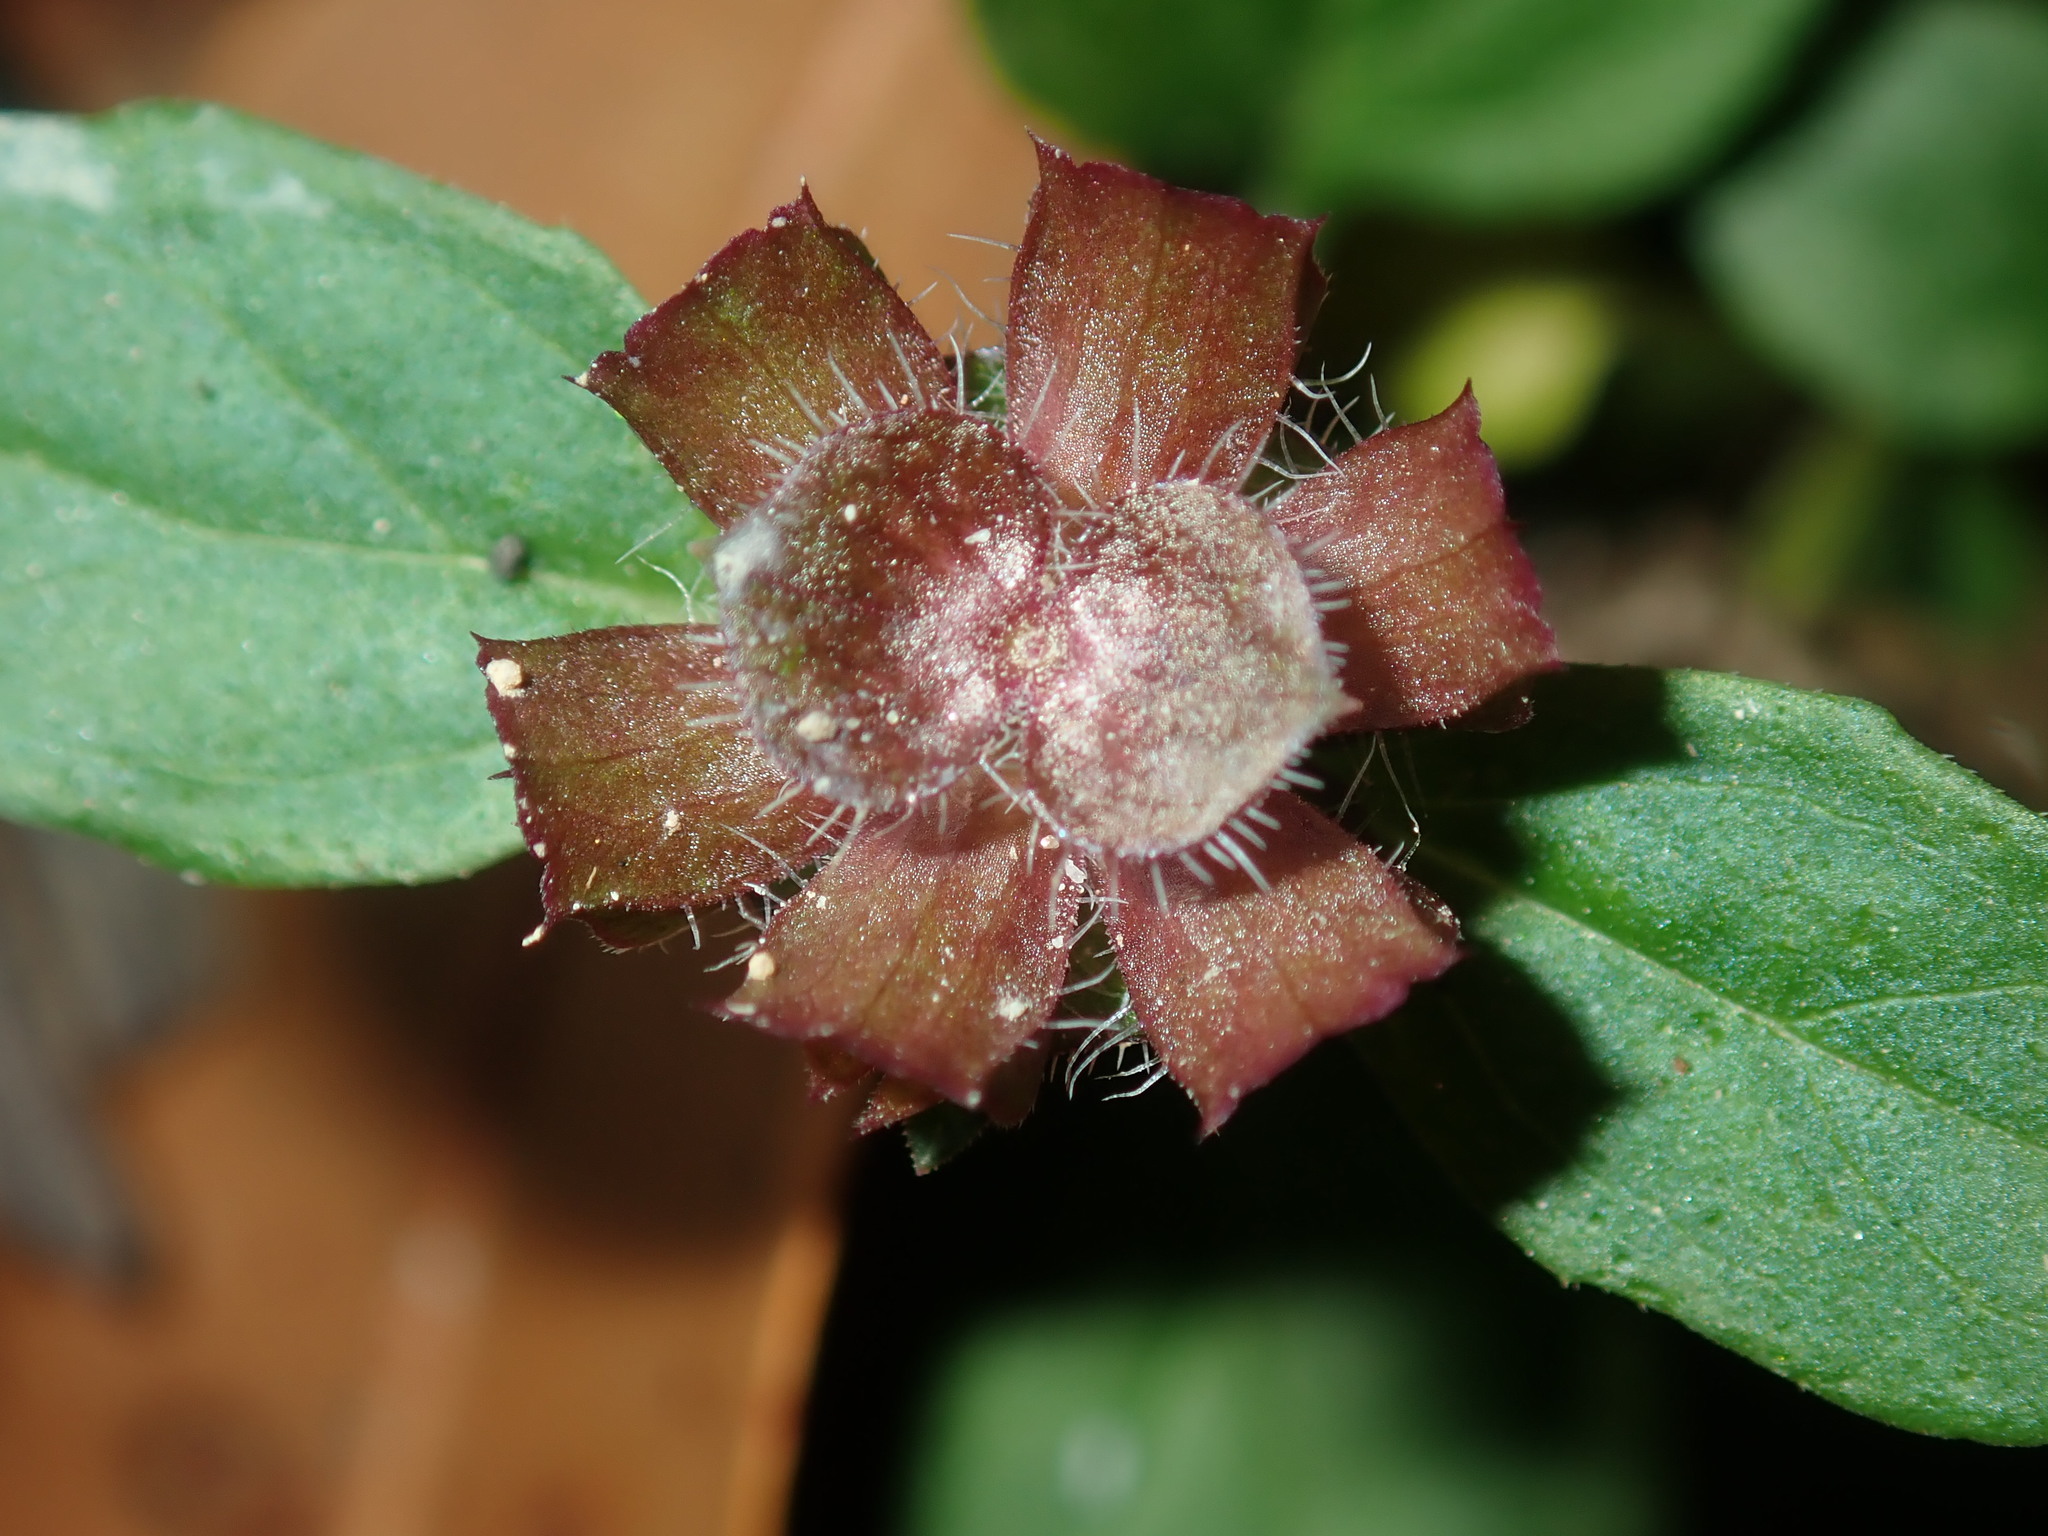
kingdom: Plantae
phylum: Tracheophyta
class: Magnoliopsida
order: Lamiales
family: Lamiaceae
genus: Prunella
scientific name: Prunella vulgaris
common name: Heal-all
